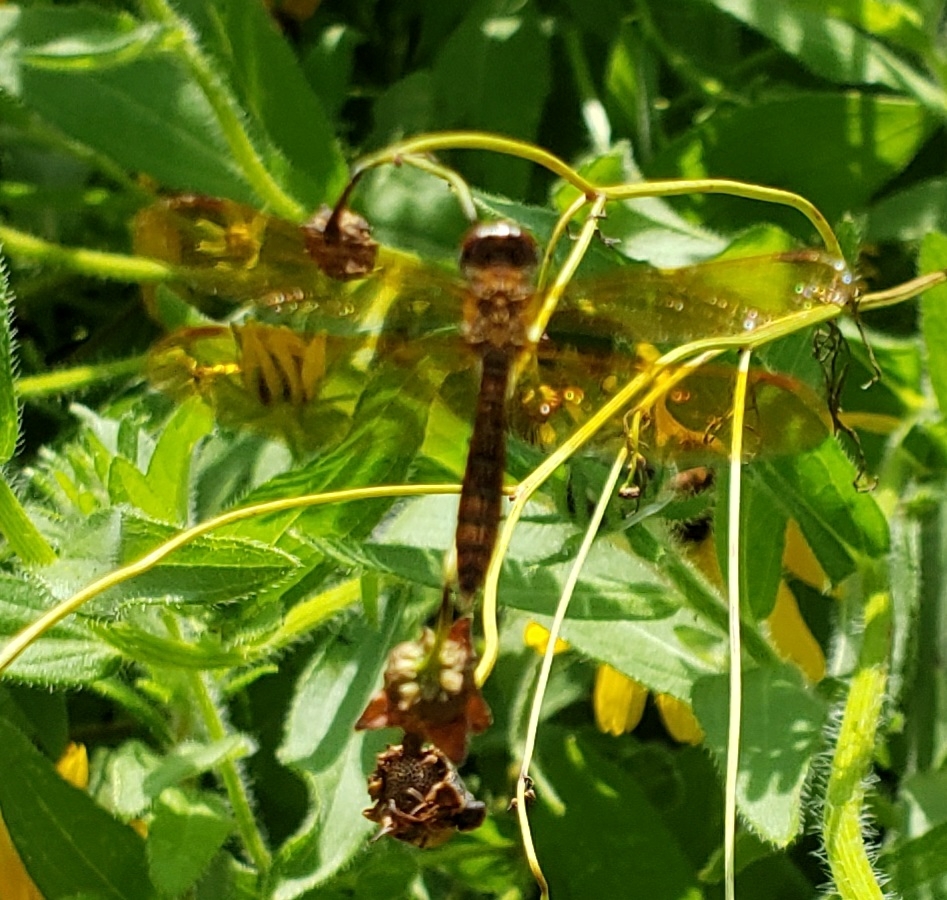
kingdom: Animalia
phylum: Arthropoda
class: Insecta
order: Odonata
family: Libellulidae
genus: Perithemis
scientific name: Perithemis tenera
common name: Eastern amberwing
